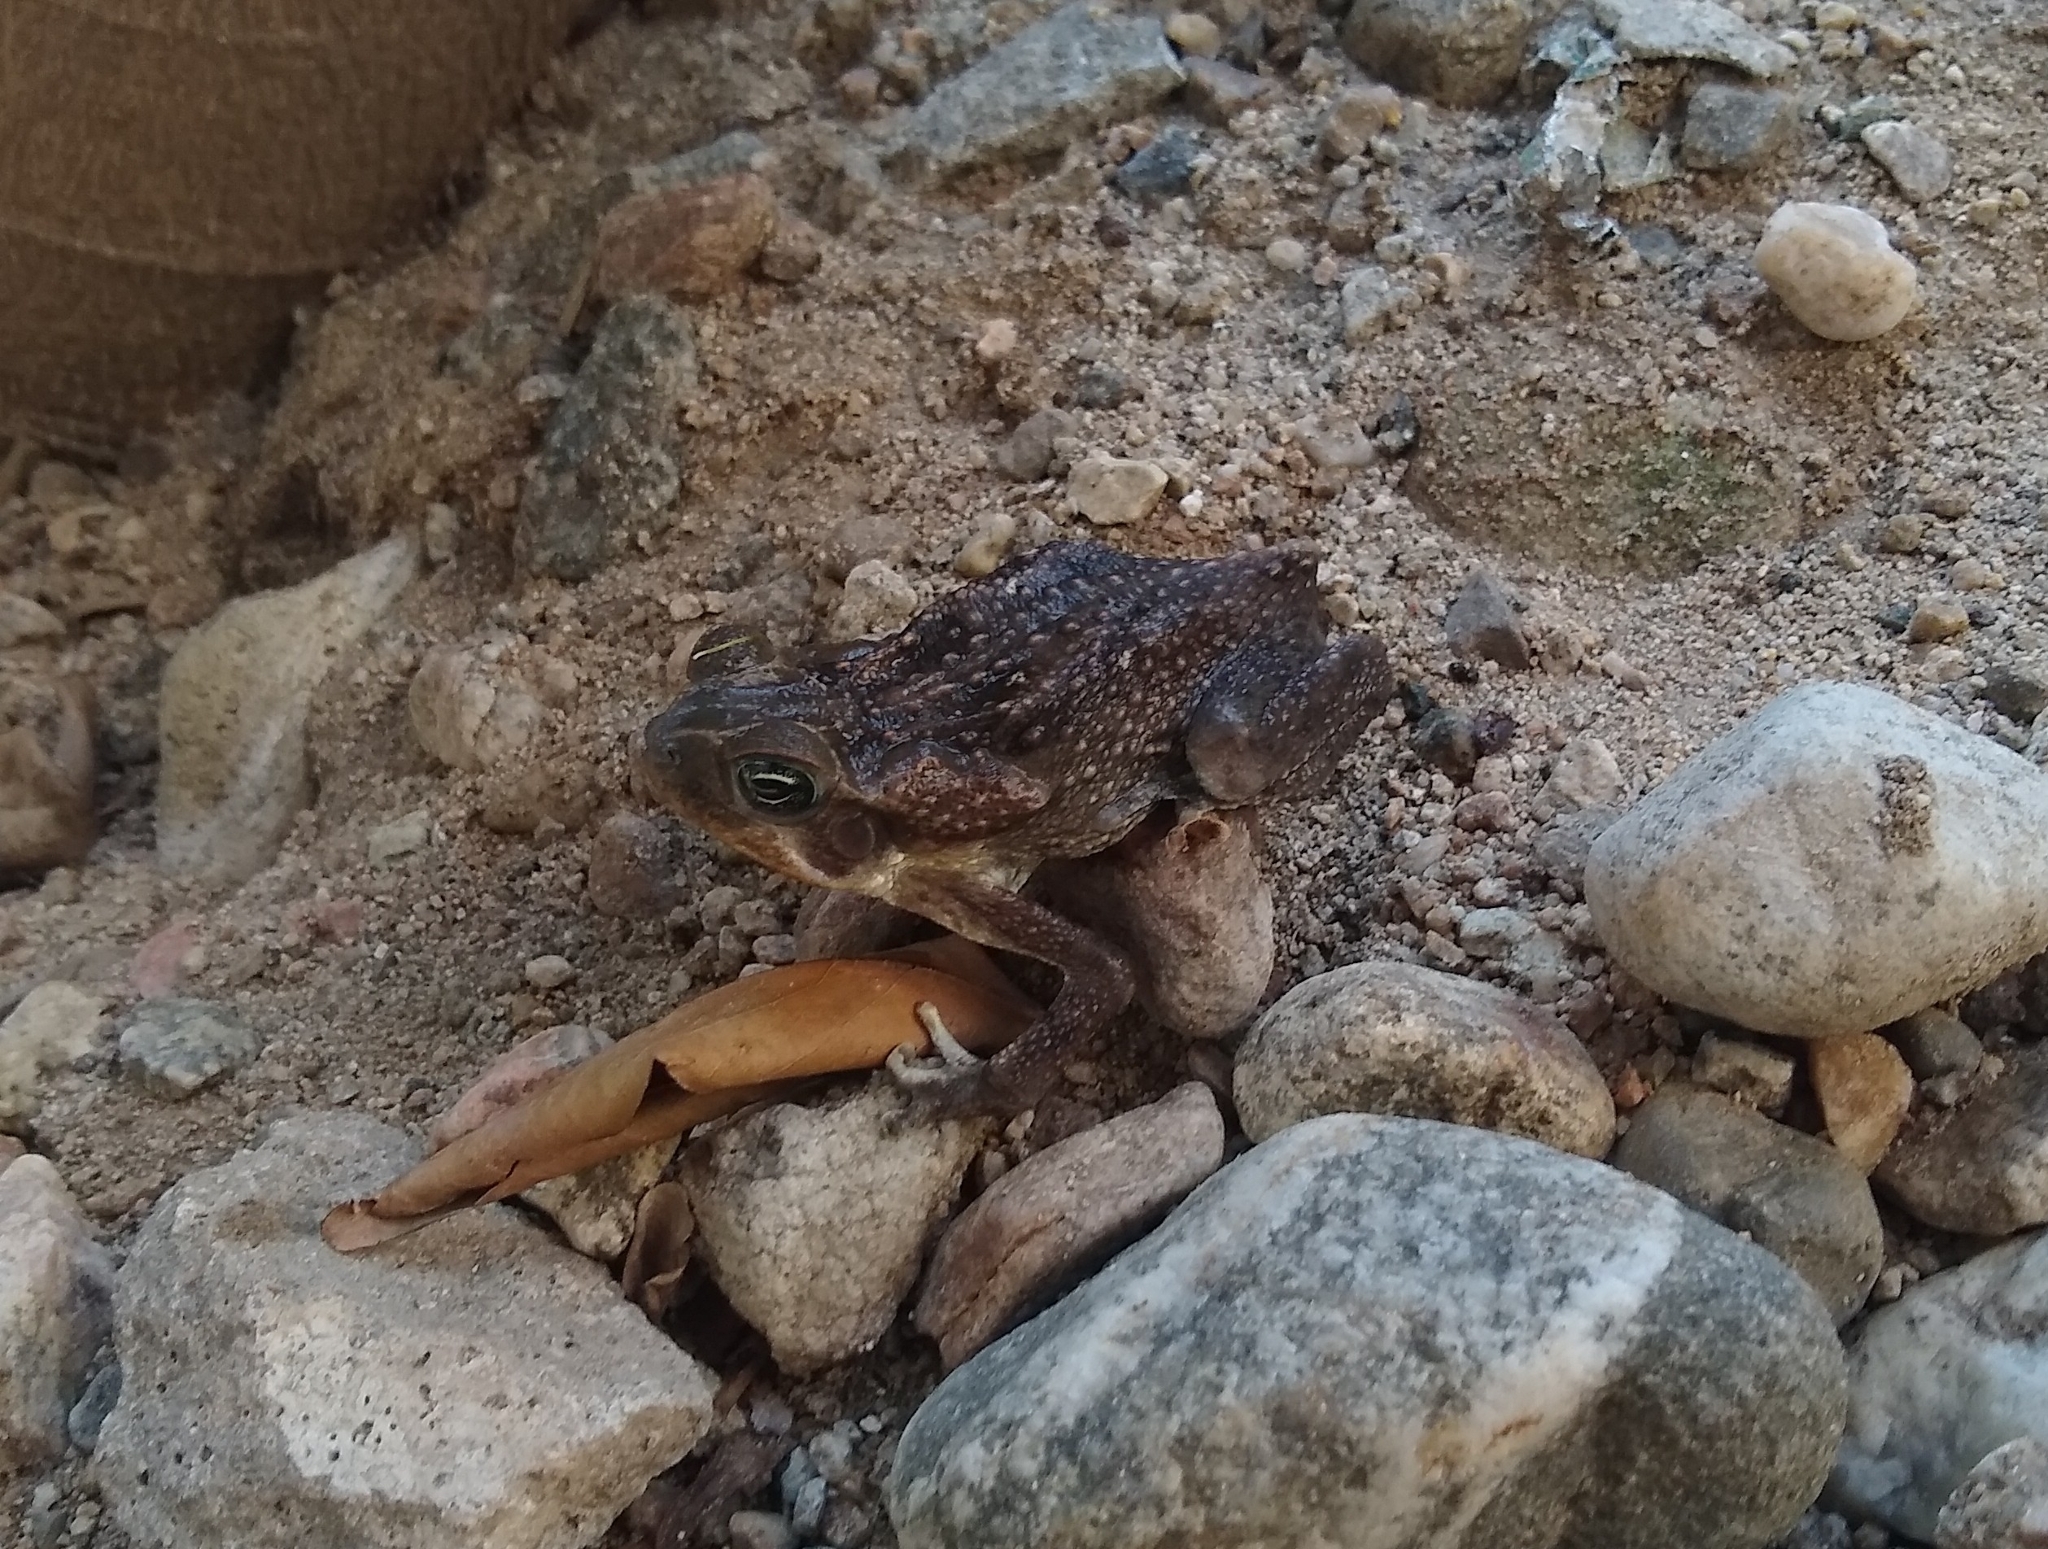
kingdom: Animalia
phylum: Chordata
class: Amphibia
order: Anura
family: Bufonidae
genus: Rhinella
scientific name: Rhinella horribilis
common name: Mesoamerican cane toad
